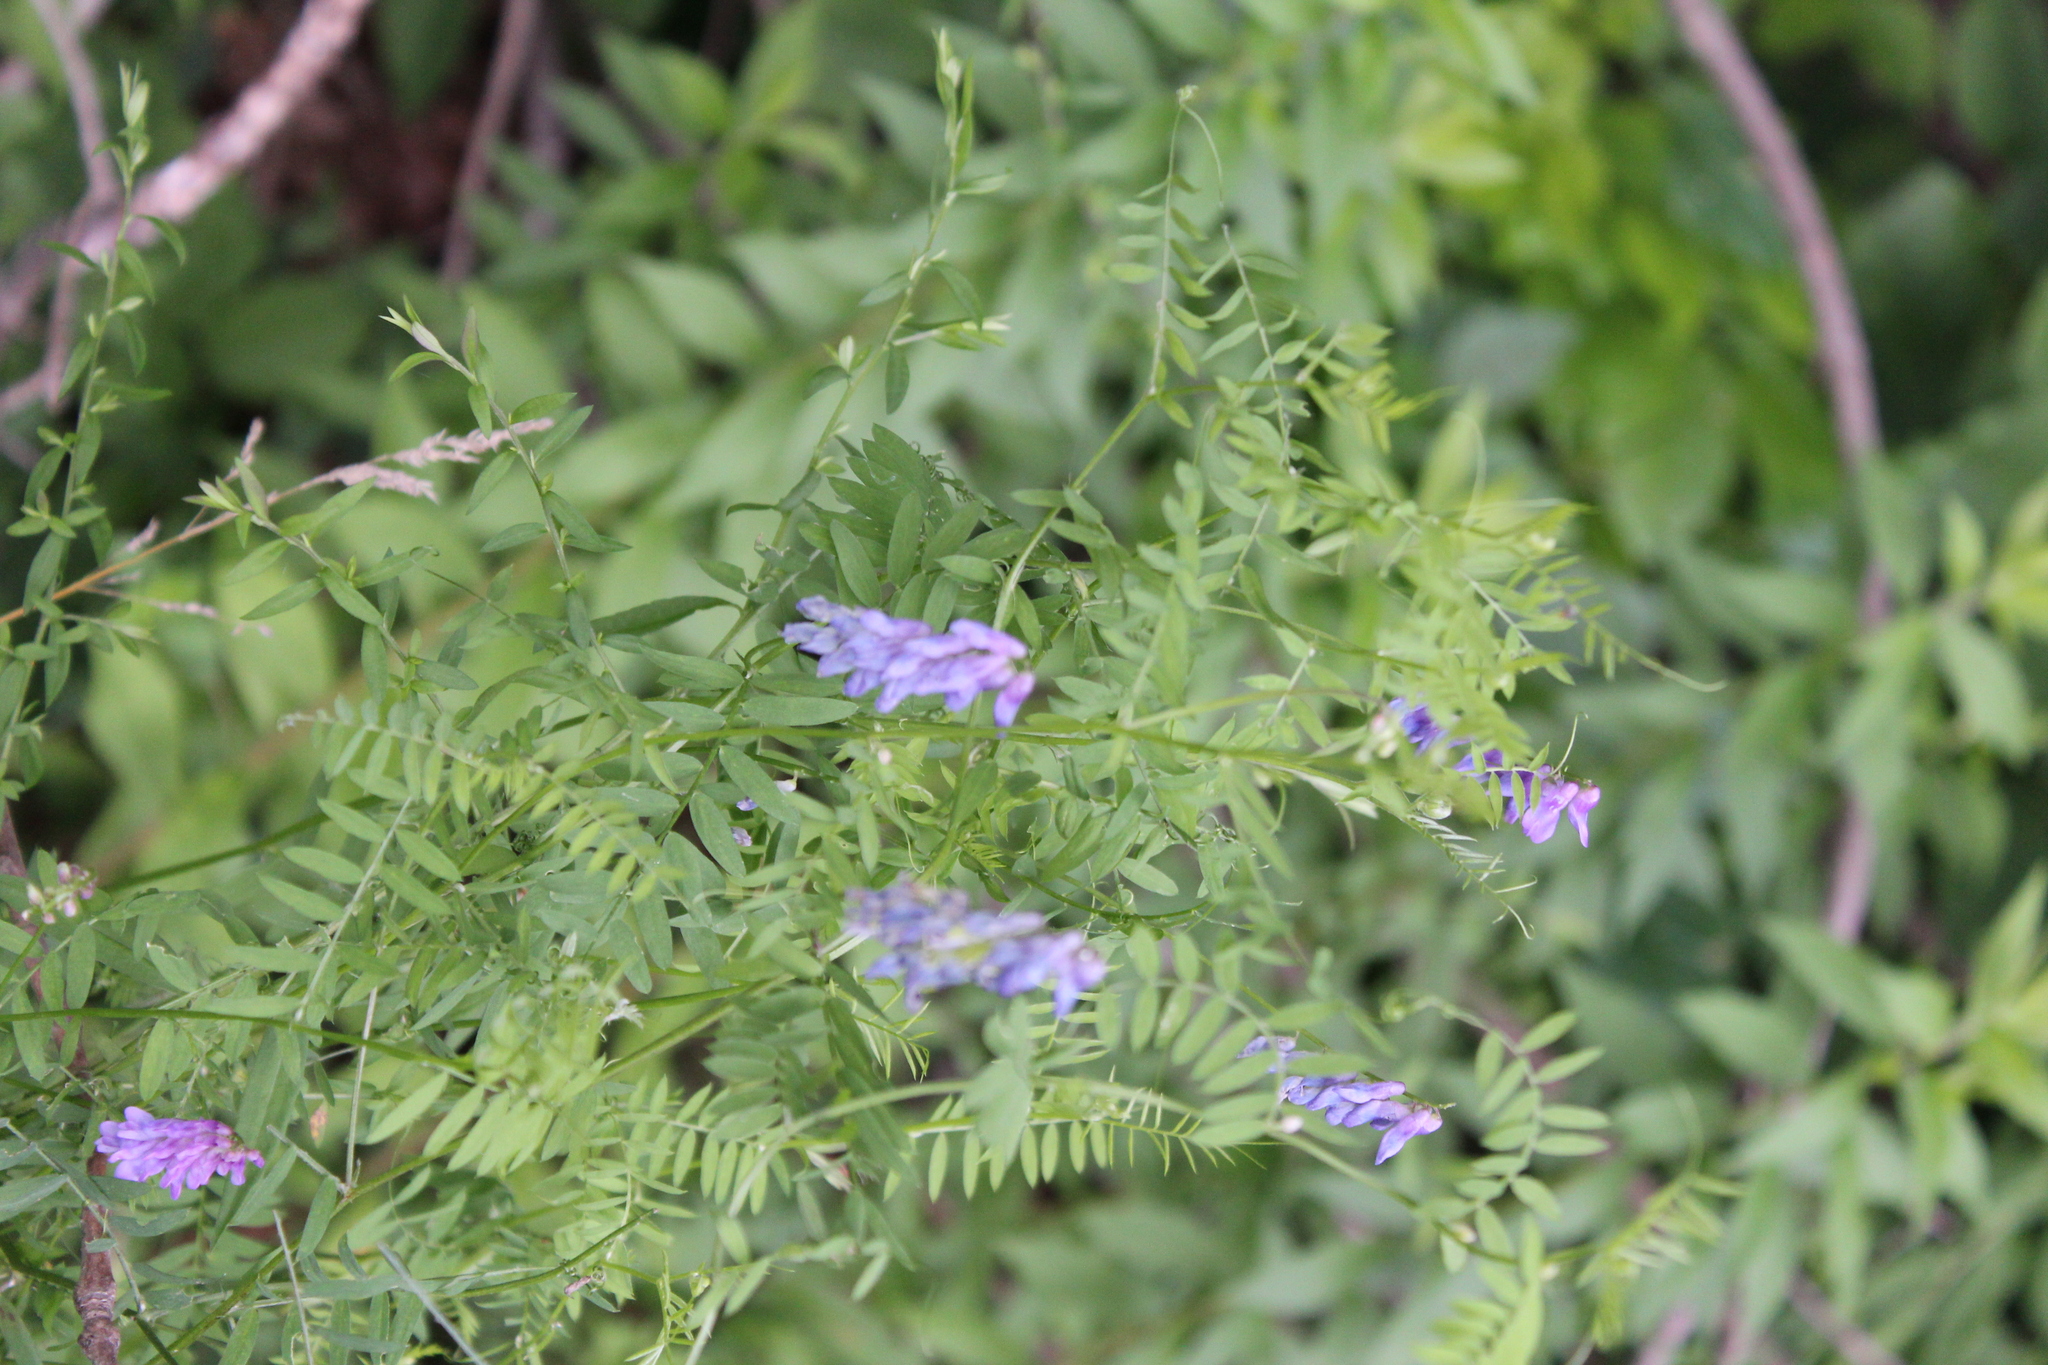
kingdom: Plantae
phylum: Tracheophyta
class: Magnoliopsida
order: Fabales
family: Fabaceae
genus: Vicia
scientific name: Vicia cracca
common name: Bird vetch
